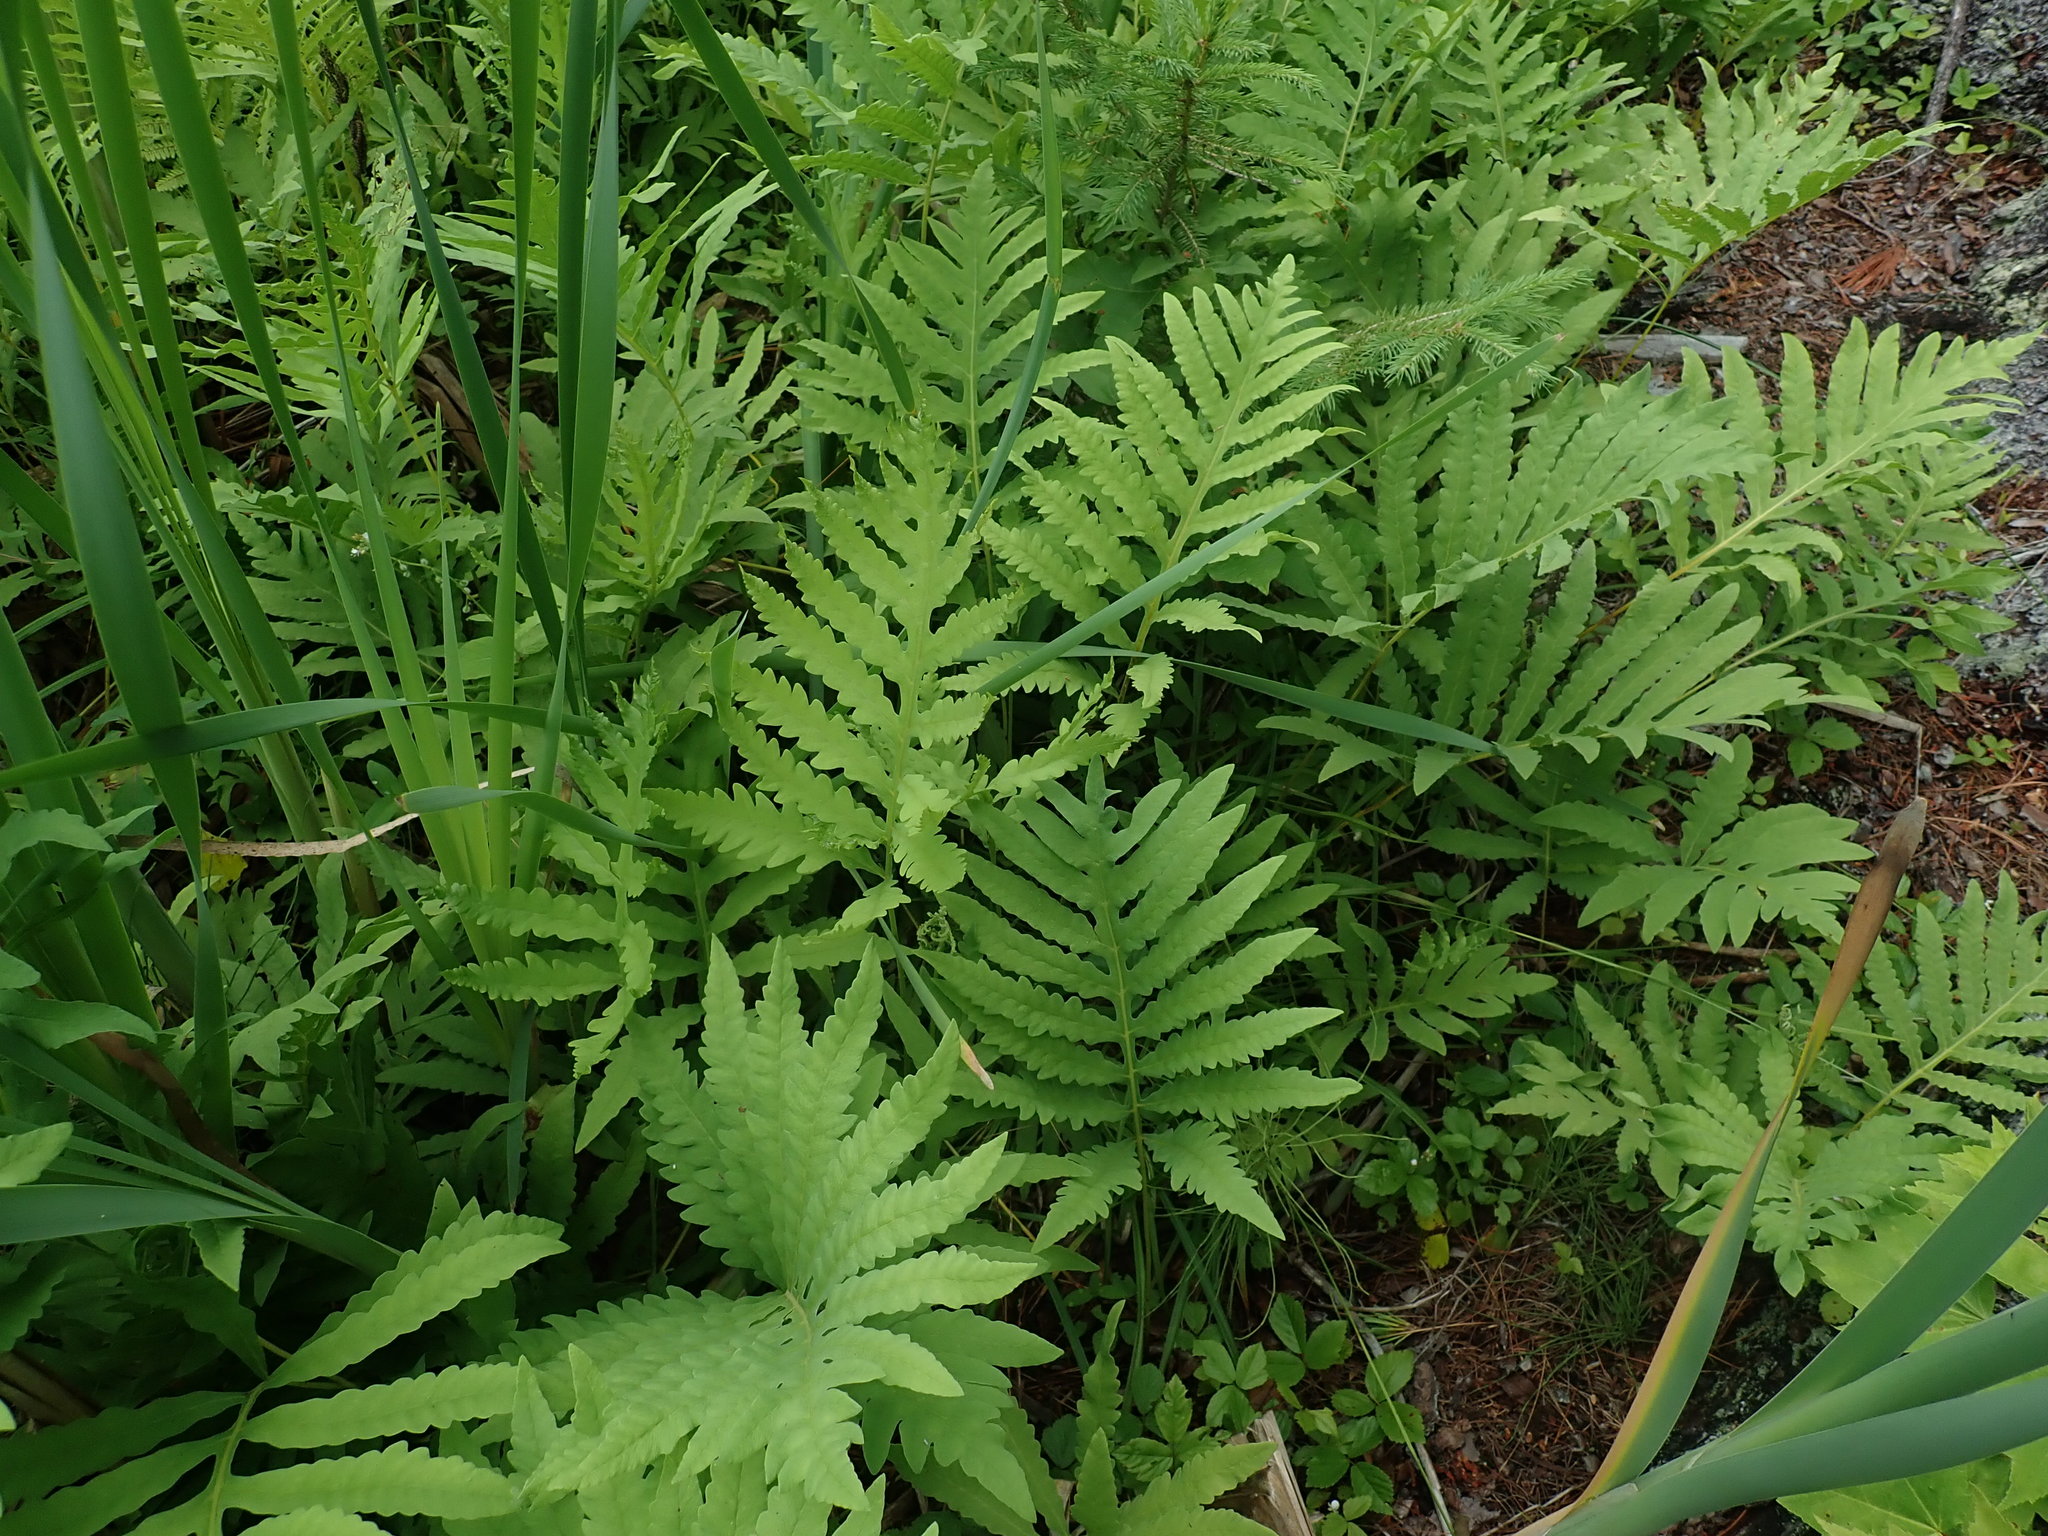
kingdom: Plantae
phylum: Tracheophyta
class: Polypodiopsida
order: Polypodiales
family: Onocleaceae
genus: Onoclea
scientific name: Onoclea sensibilis
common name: Sensitive fern
